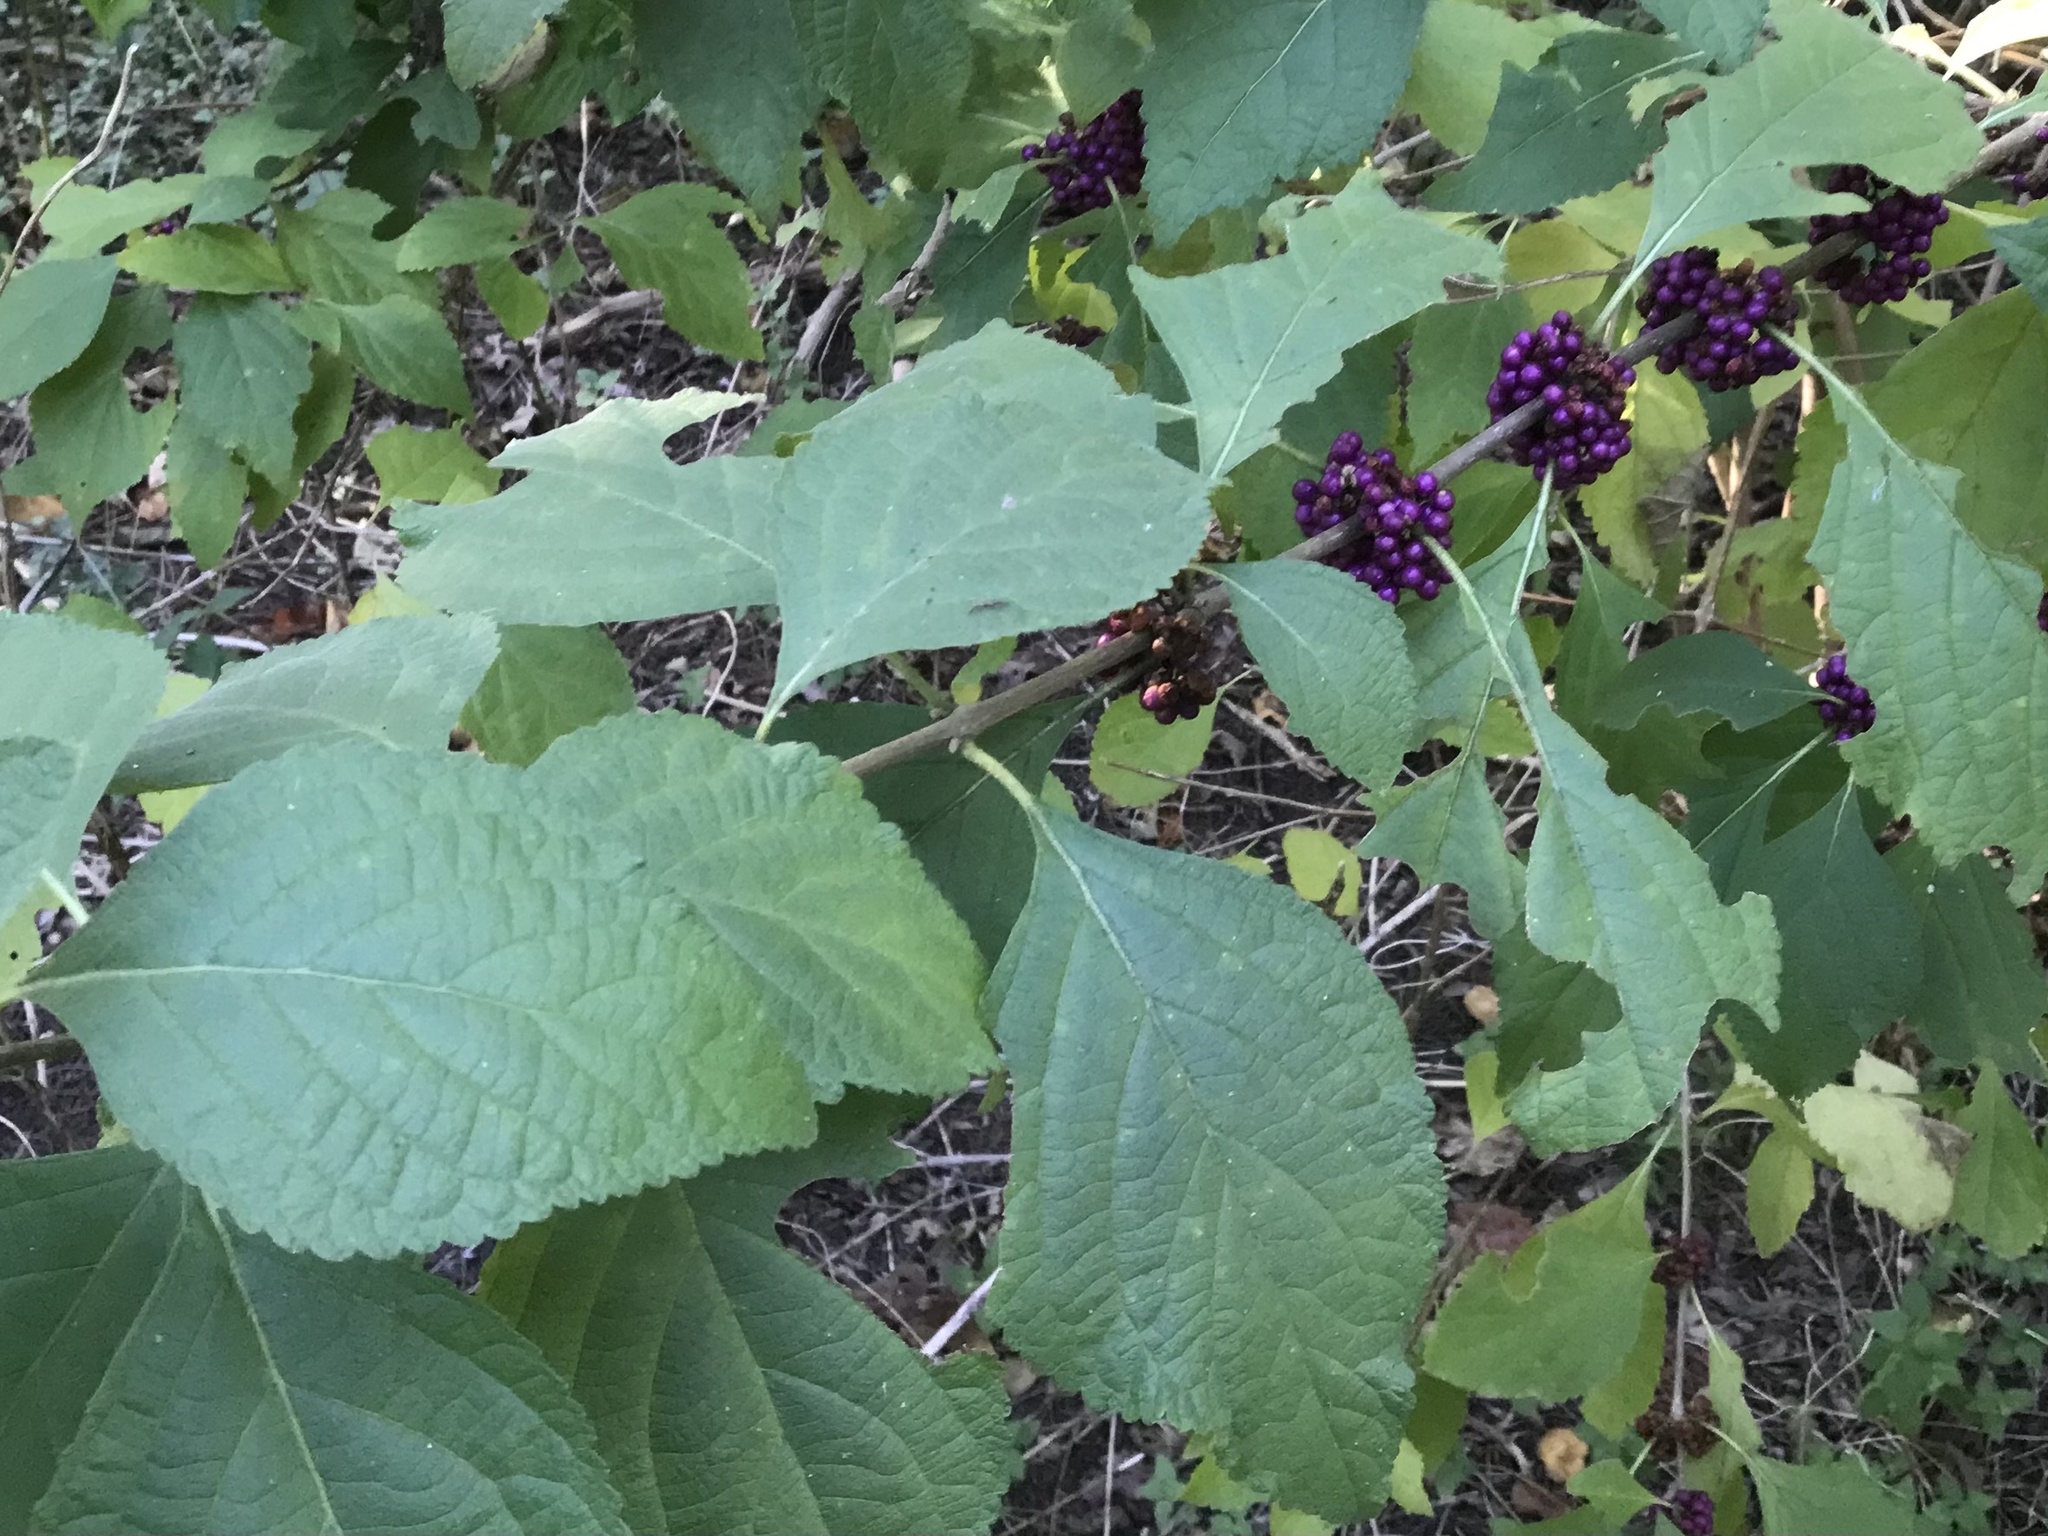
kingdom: Plantae
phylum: Tracheophyta
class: Magnoliopsida
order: Lamiales
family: Lamiaceae
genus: Callicarpa
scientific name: Callicarpa americana
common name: American beautyberry
